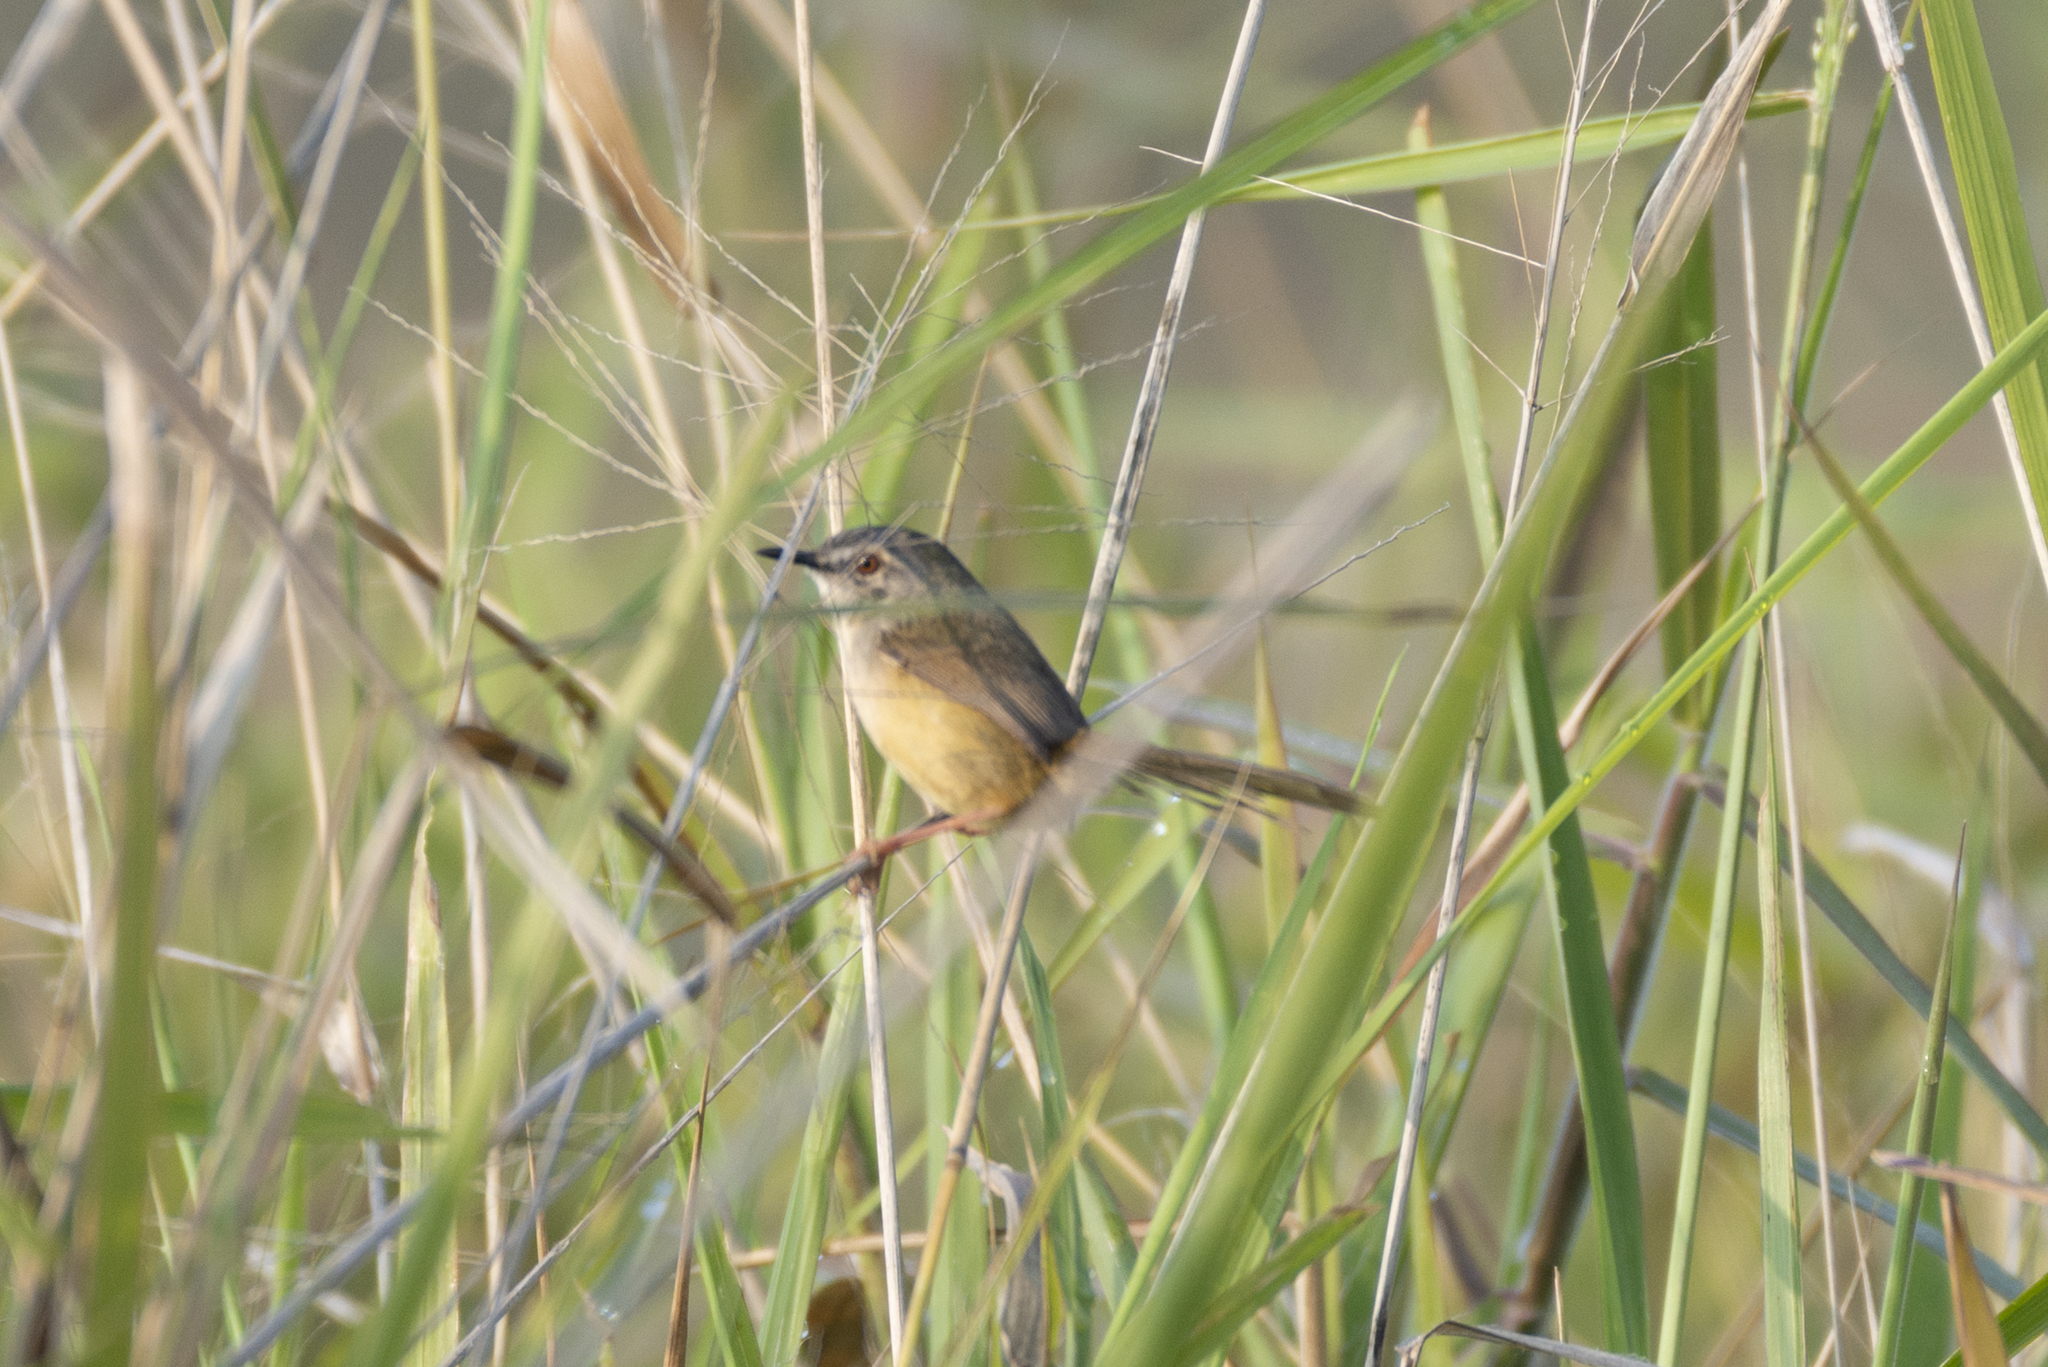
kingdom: Animalia
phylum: Chordata
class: Aves
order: Passeriformes
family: Cisticolidae
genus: Prinia
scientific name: Prinia flaviventris
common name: Yellow-bellied prinia
